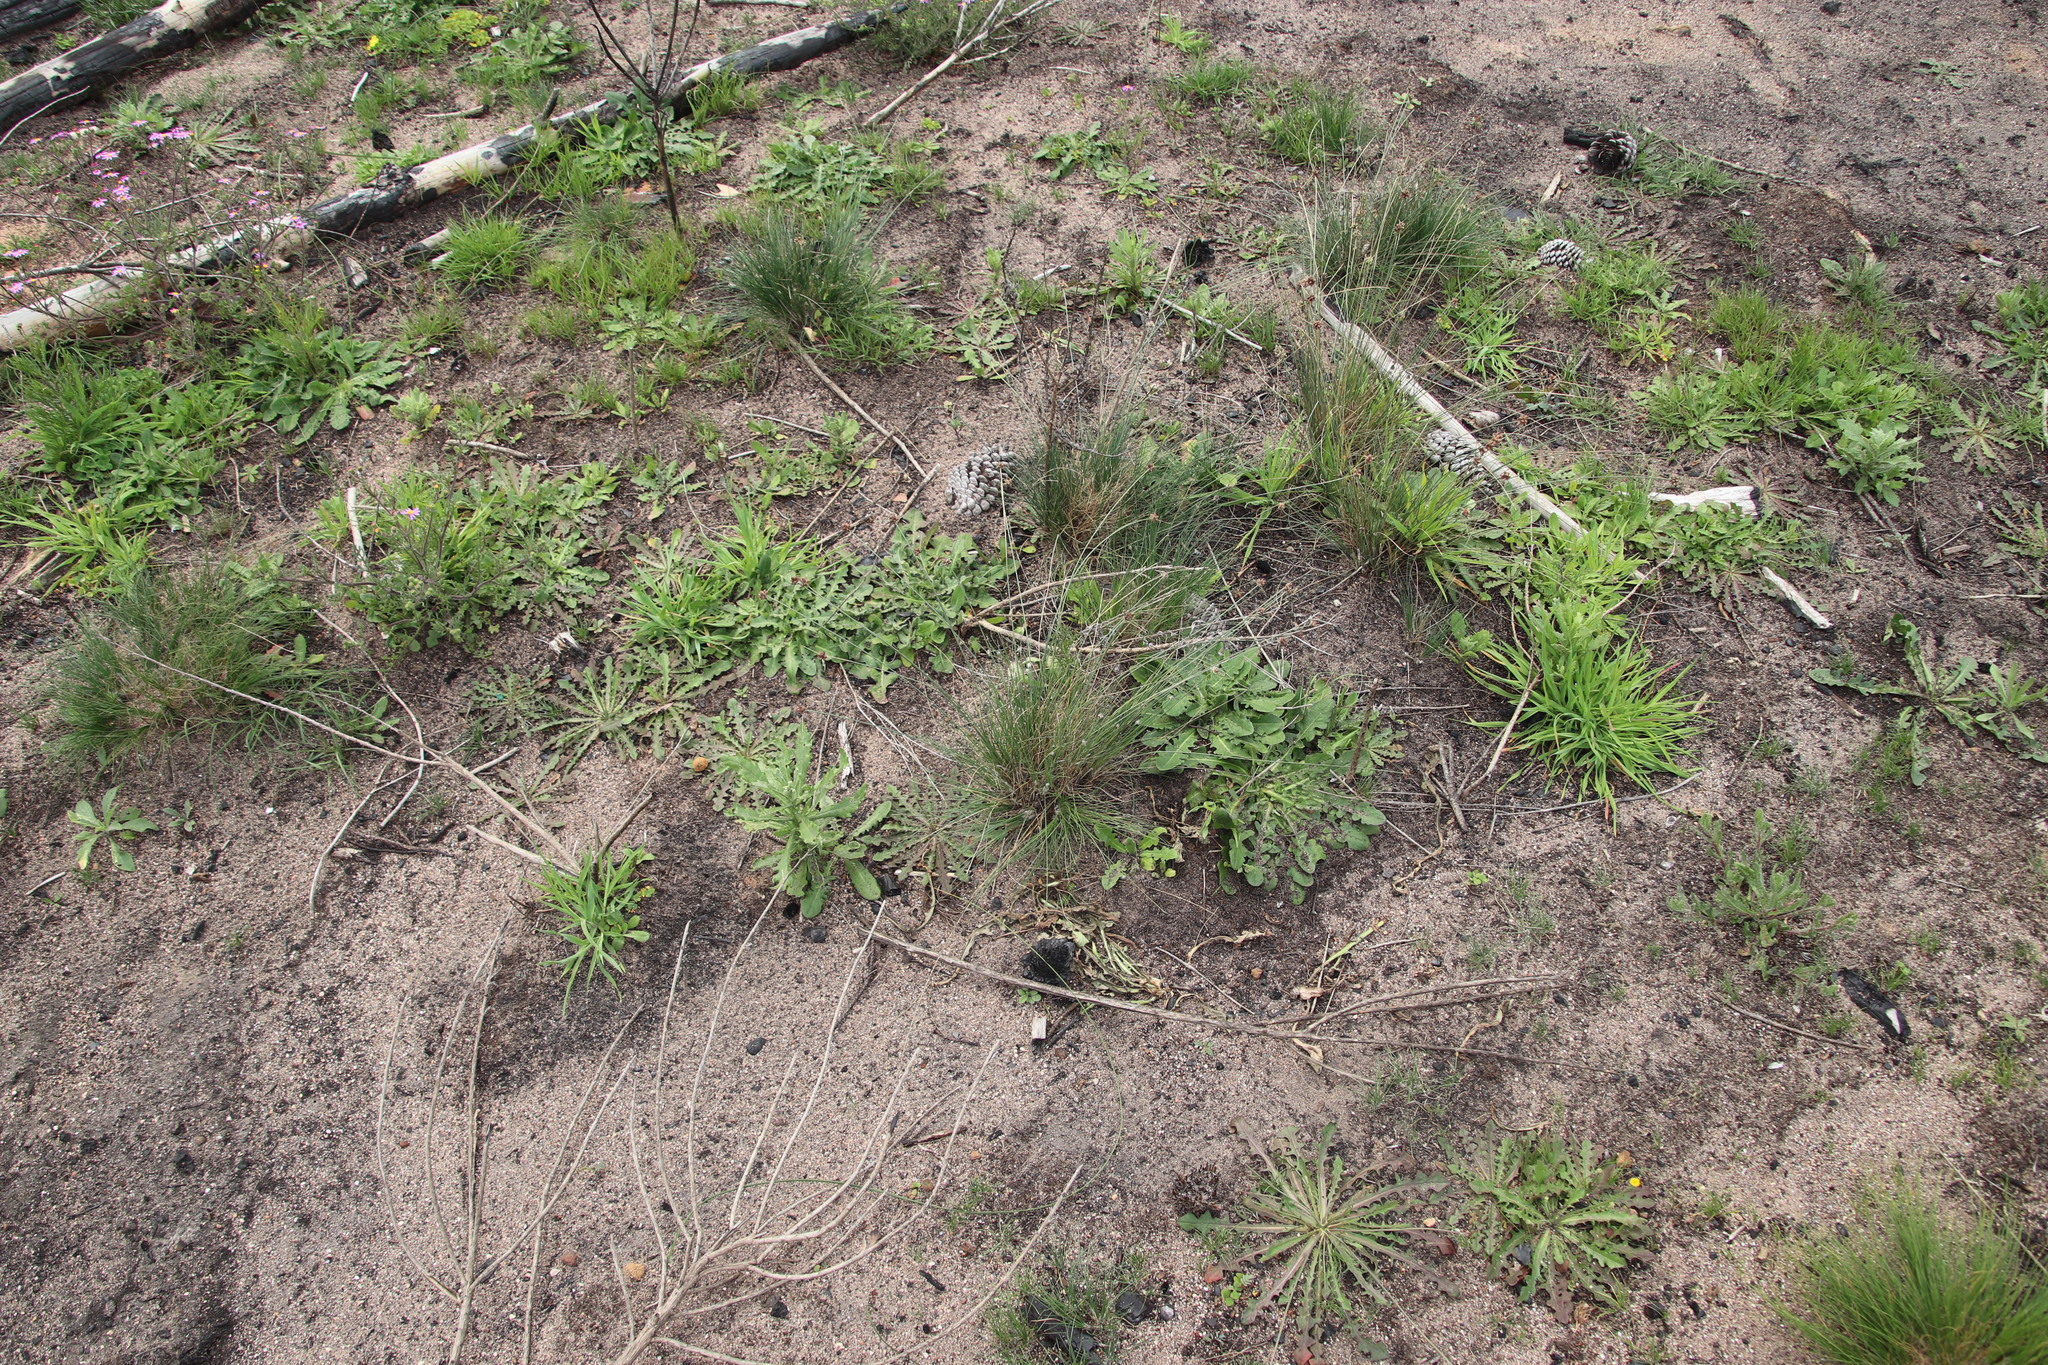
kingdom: Plantae
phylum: Tracheophyta
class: Liliopsida
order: Poales
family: Cyperaceae
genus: Ficinia
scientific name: Ficinia paradoxa
